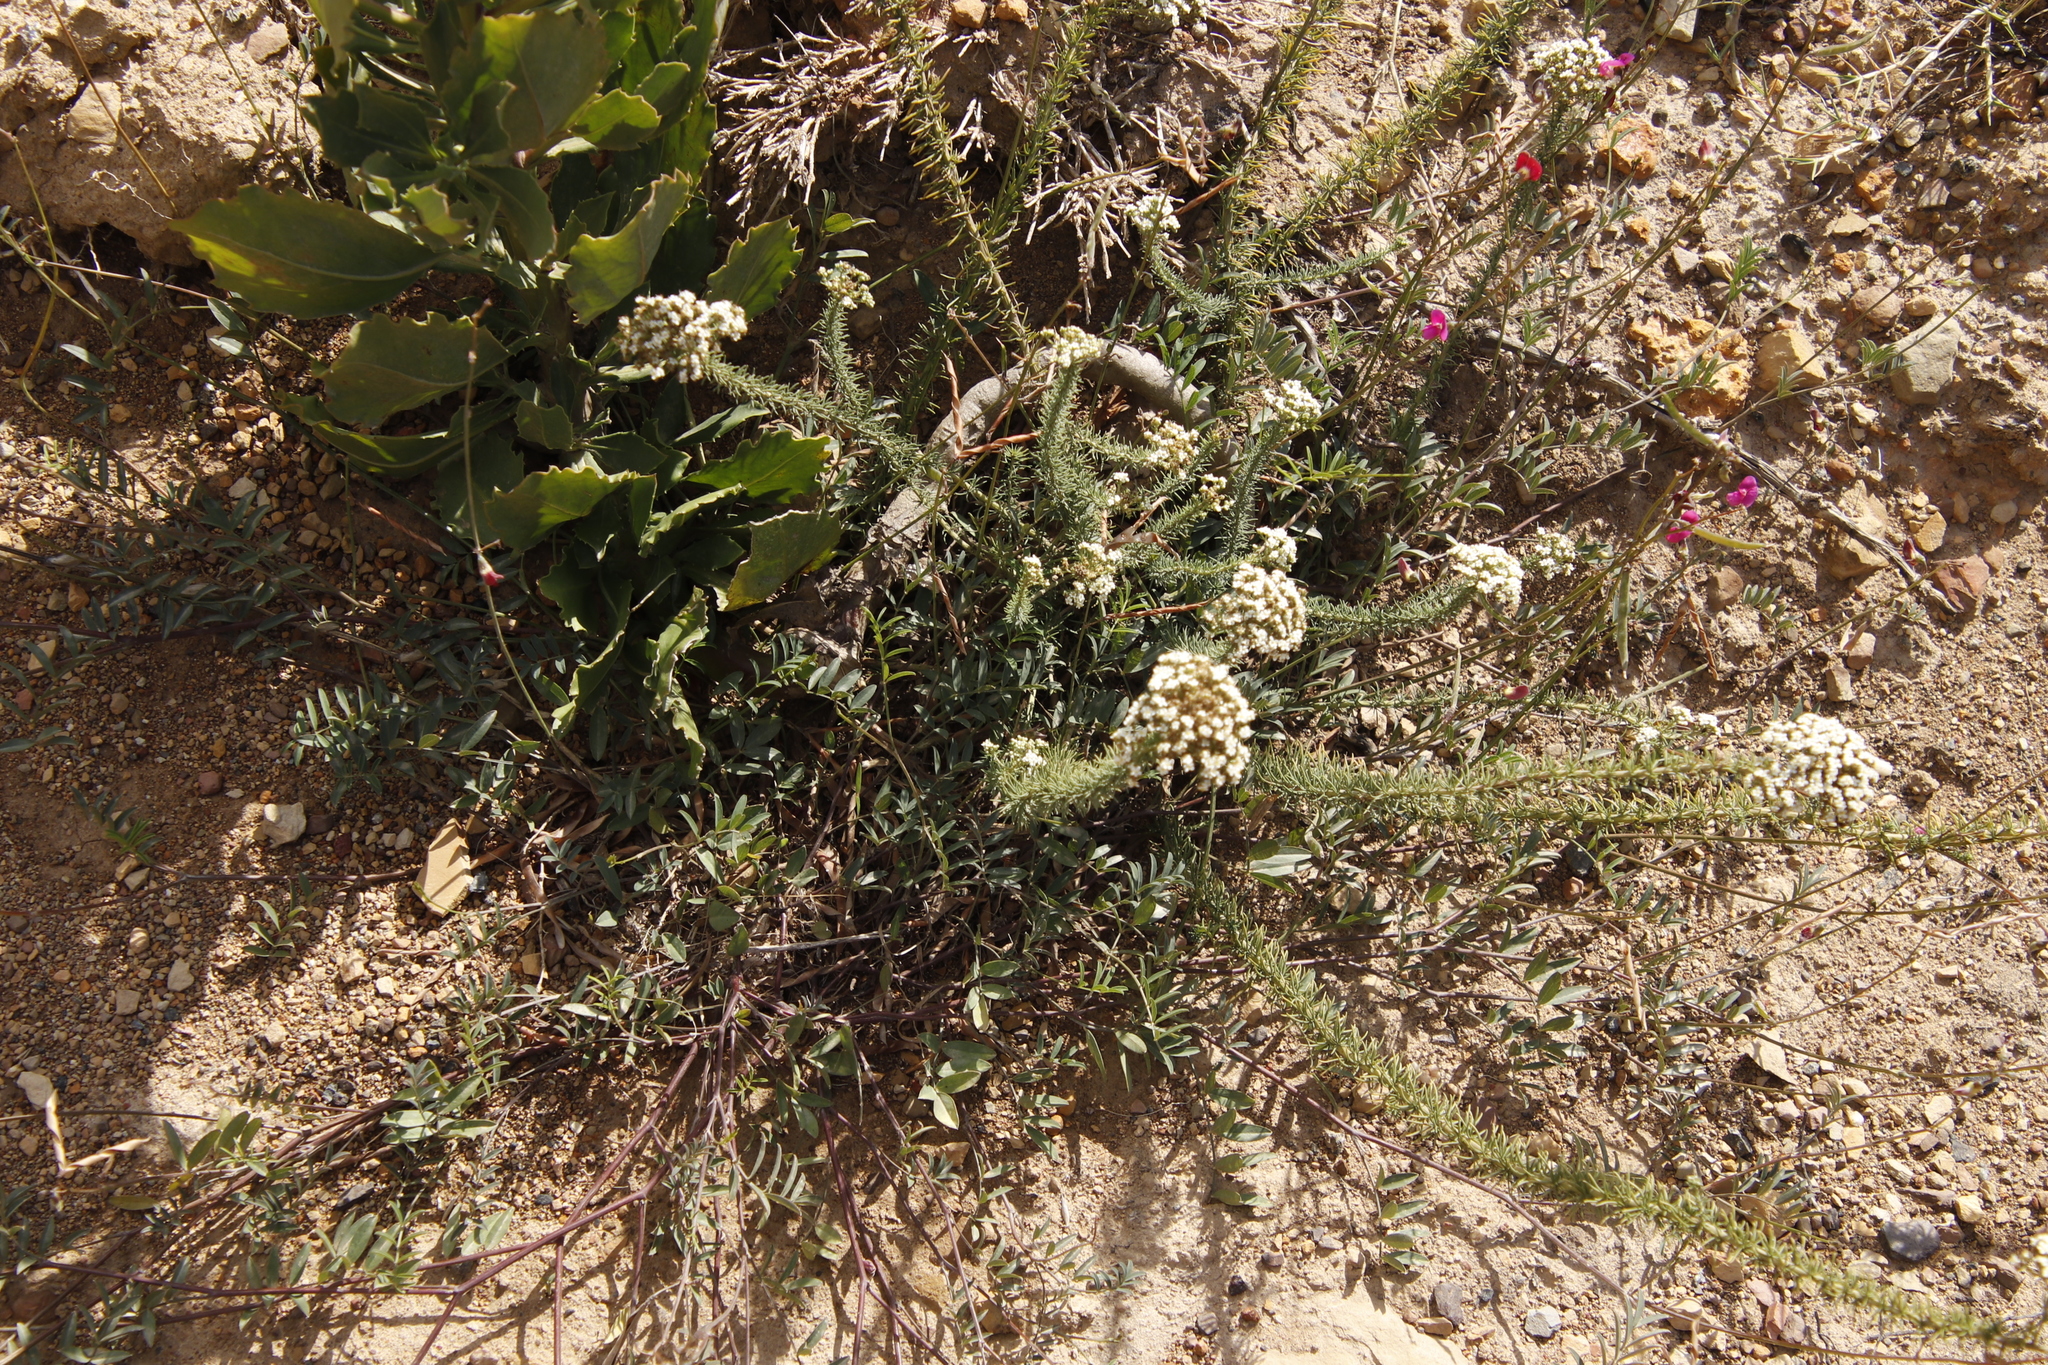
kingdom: Plantae
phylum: Tracheophyta
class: Magnoliopsida
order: Lamiales
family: Scrophulariaceae
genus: Selago
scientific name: Selago corymbosa
